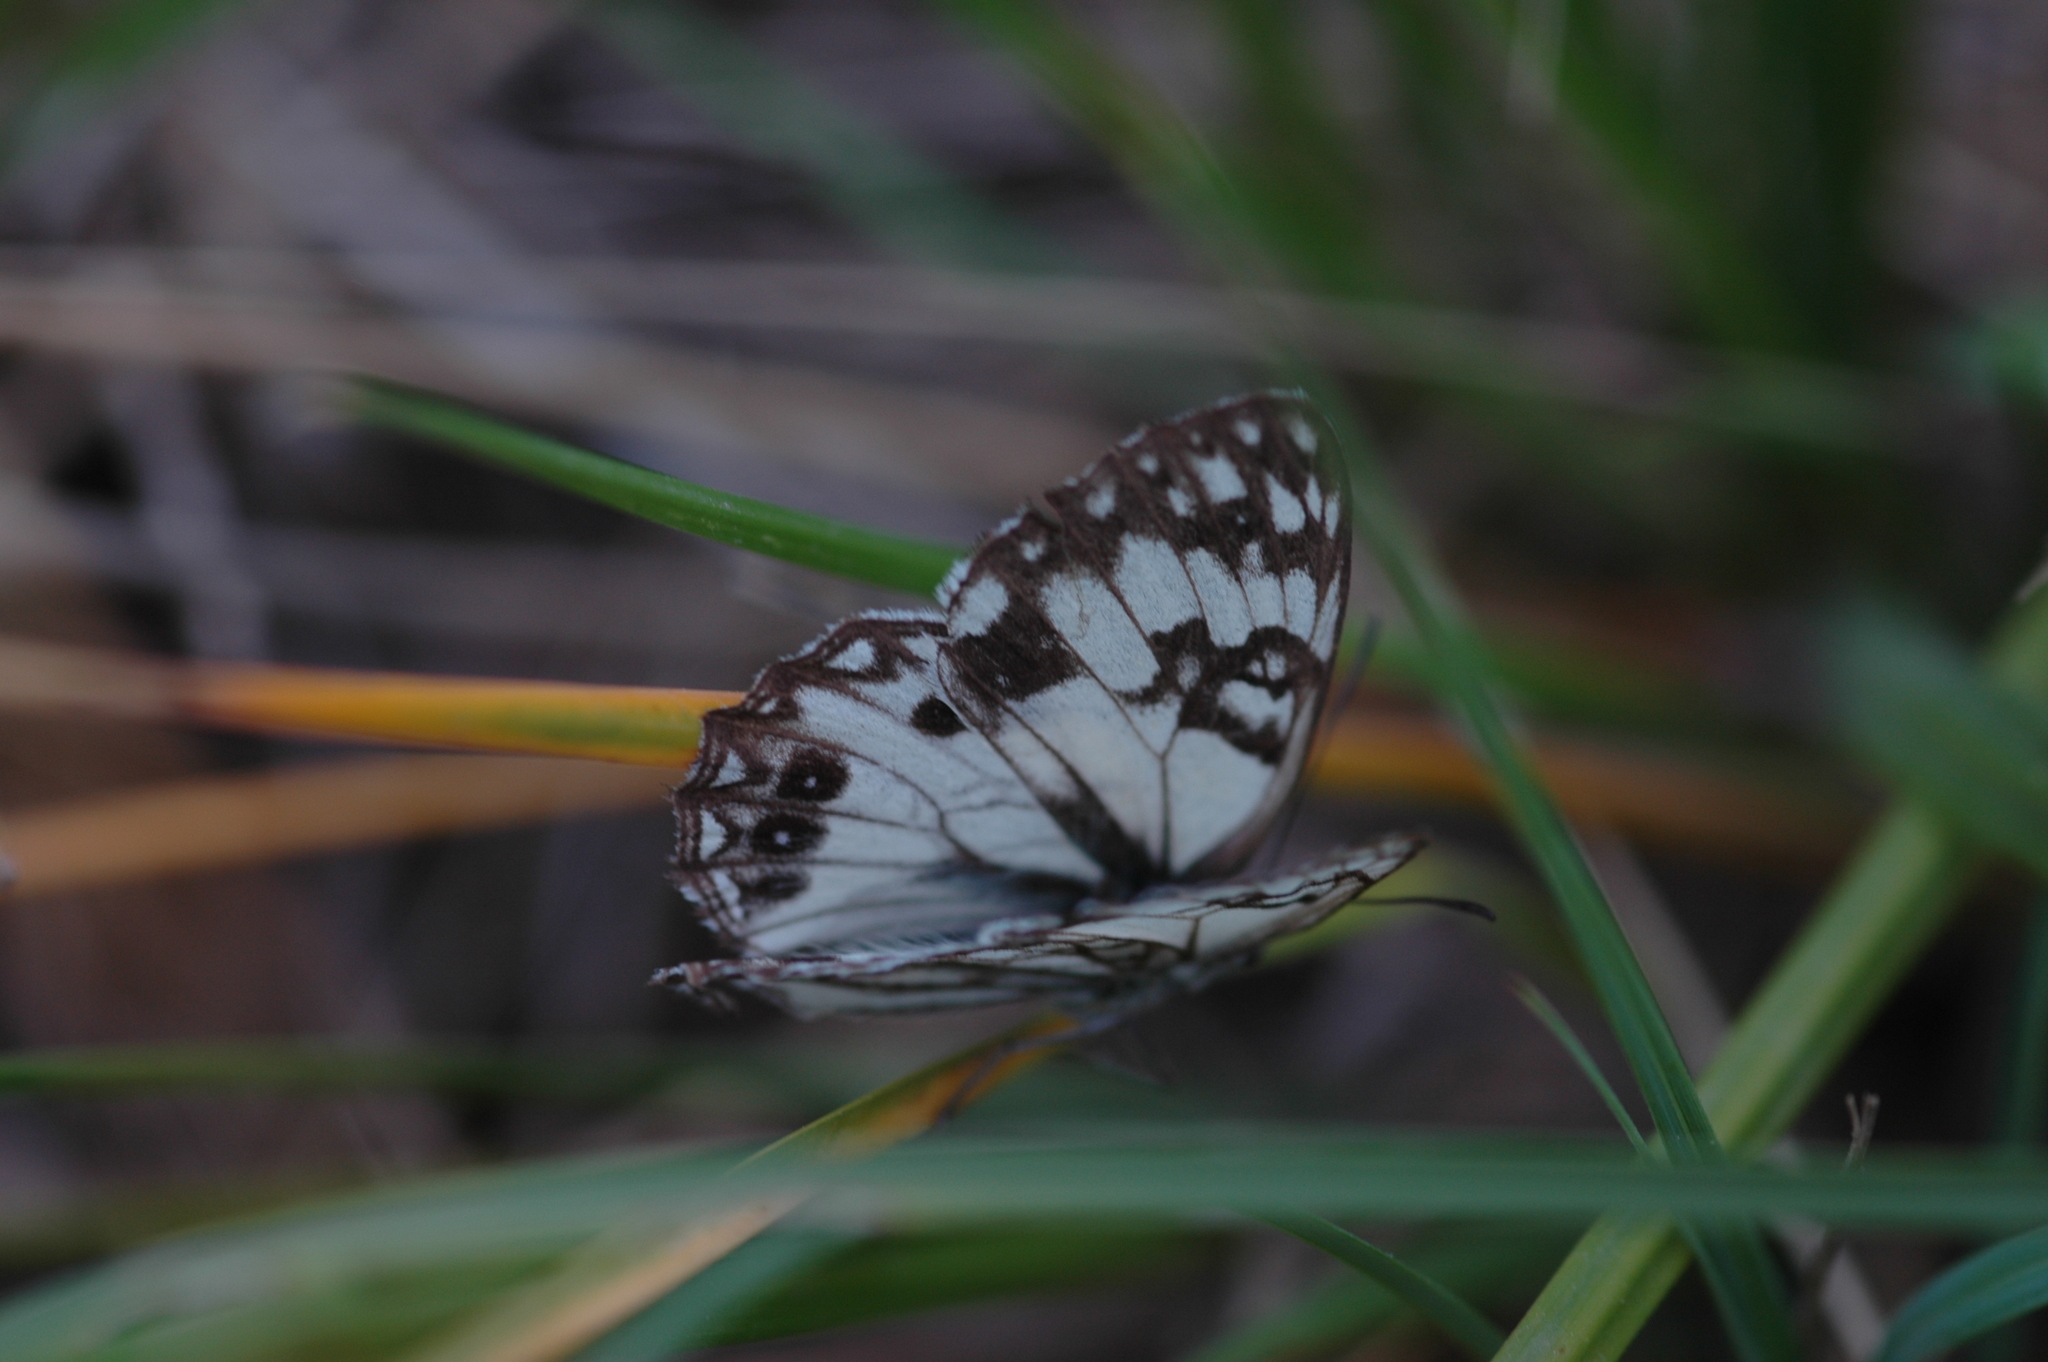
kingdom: Animalia
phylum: Arthropoda
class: Insecta
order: Lepidoptera
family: Nymphalidae
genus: Melanargia
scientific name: Melanargia occitanica
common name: Western marbled white
